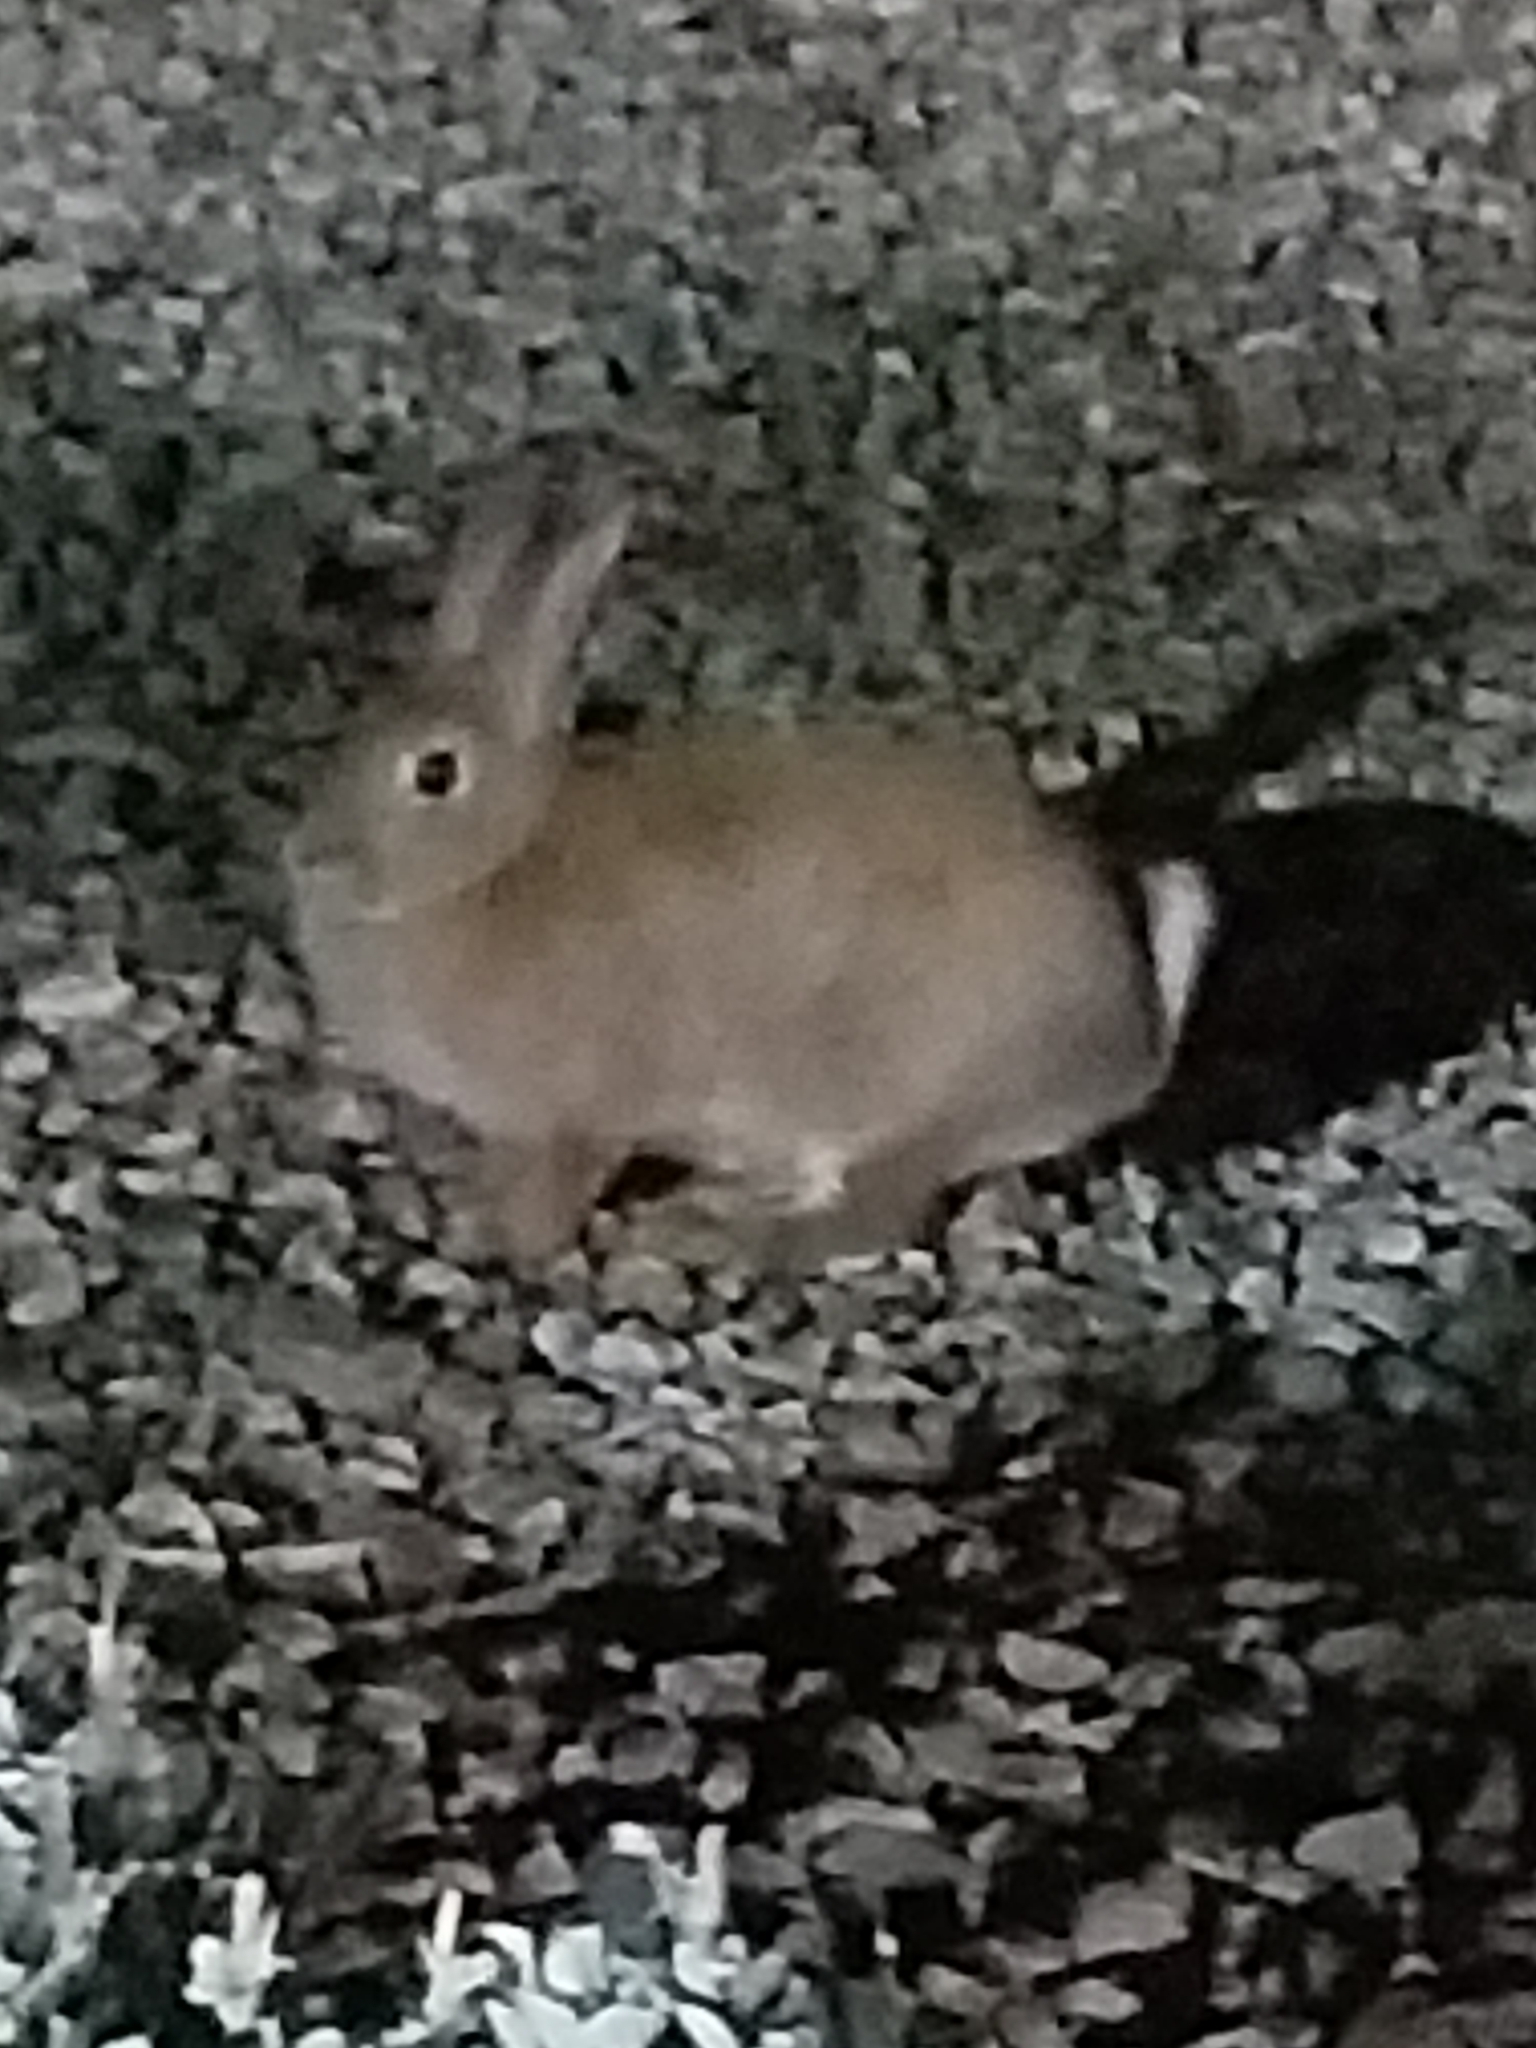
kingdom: Animalia
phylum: Chordata
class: Mammalia
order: Lagomorpha
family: Leporidae
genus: Sylvilagus
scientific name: Sylvilagus audubonii
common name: Desert cottontail
